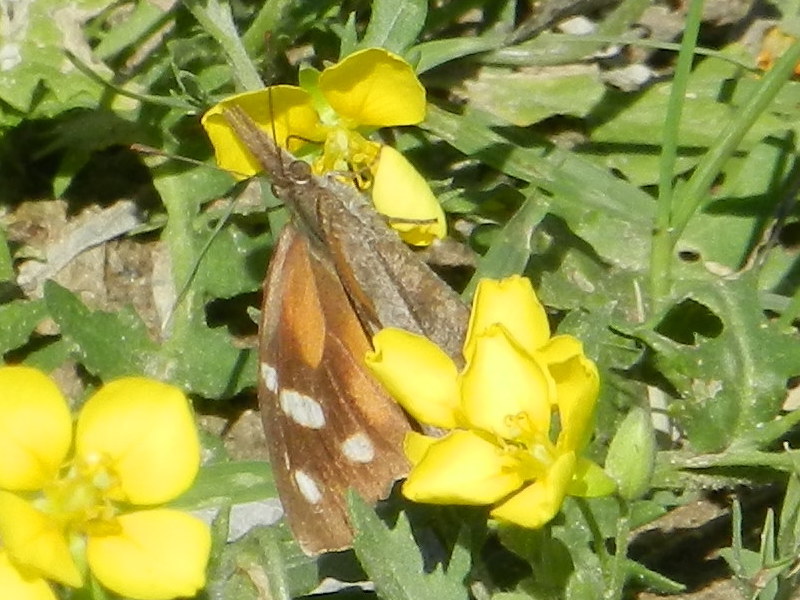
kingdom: Animalia
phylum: Arthropoda
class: Insecta
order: Lepidoptera
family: Nymphalidae
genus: Libytheana
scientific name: Libytheana carinenta
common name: American snout
